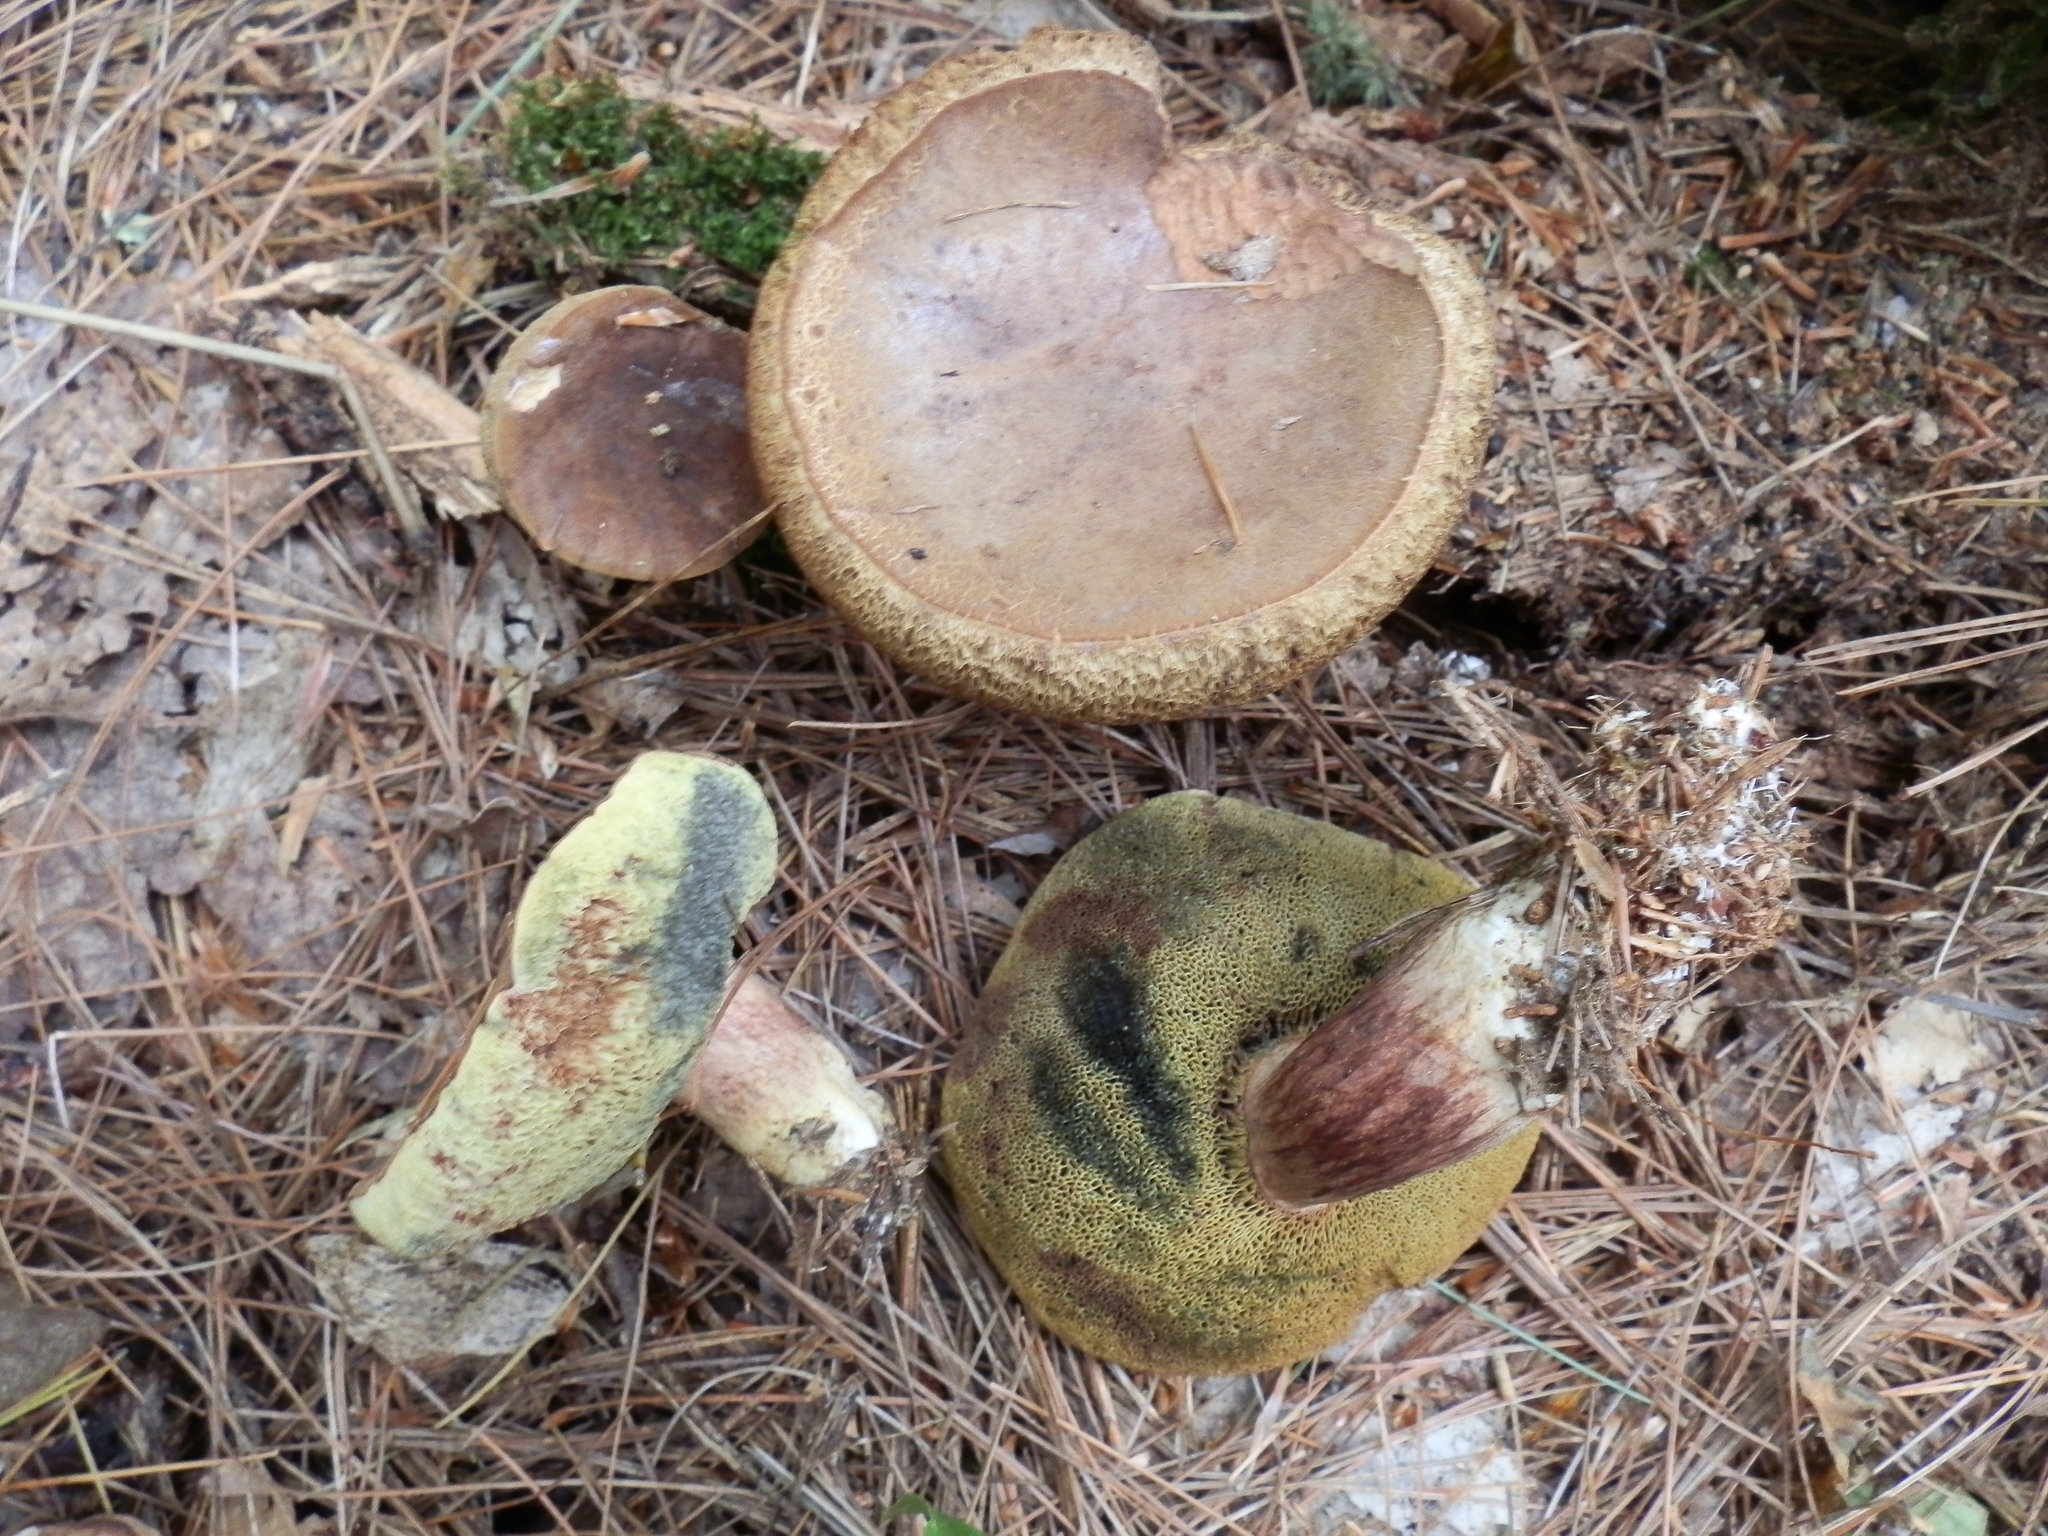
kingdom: Fungi
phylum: Basidiomycota
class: Agaricomycetes
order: Boletales
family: Boletaceae
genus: Imleria
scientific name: Imleria badia
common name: Bay bolete
